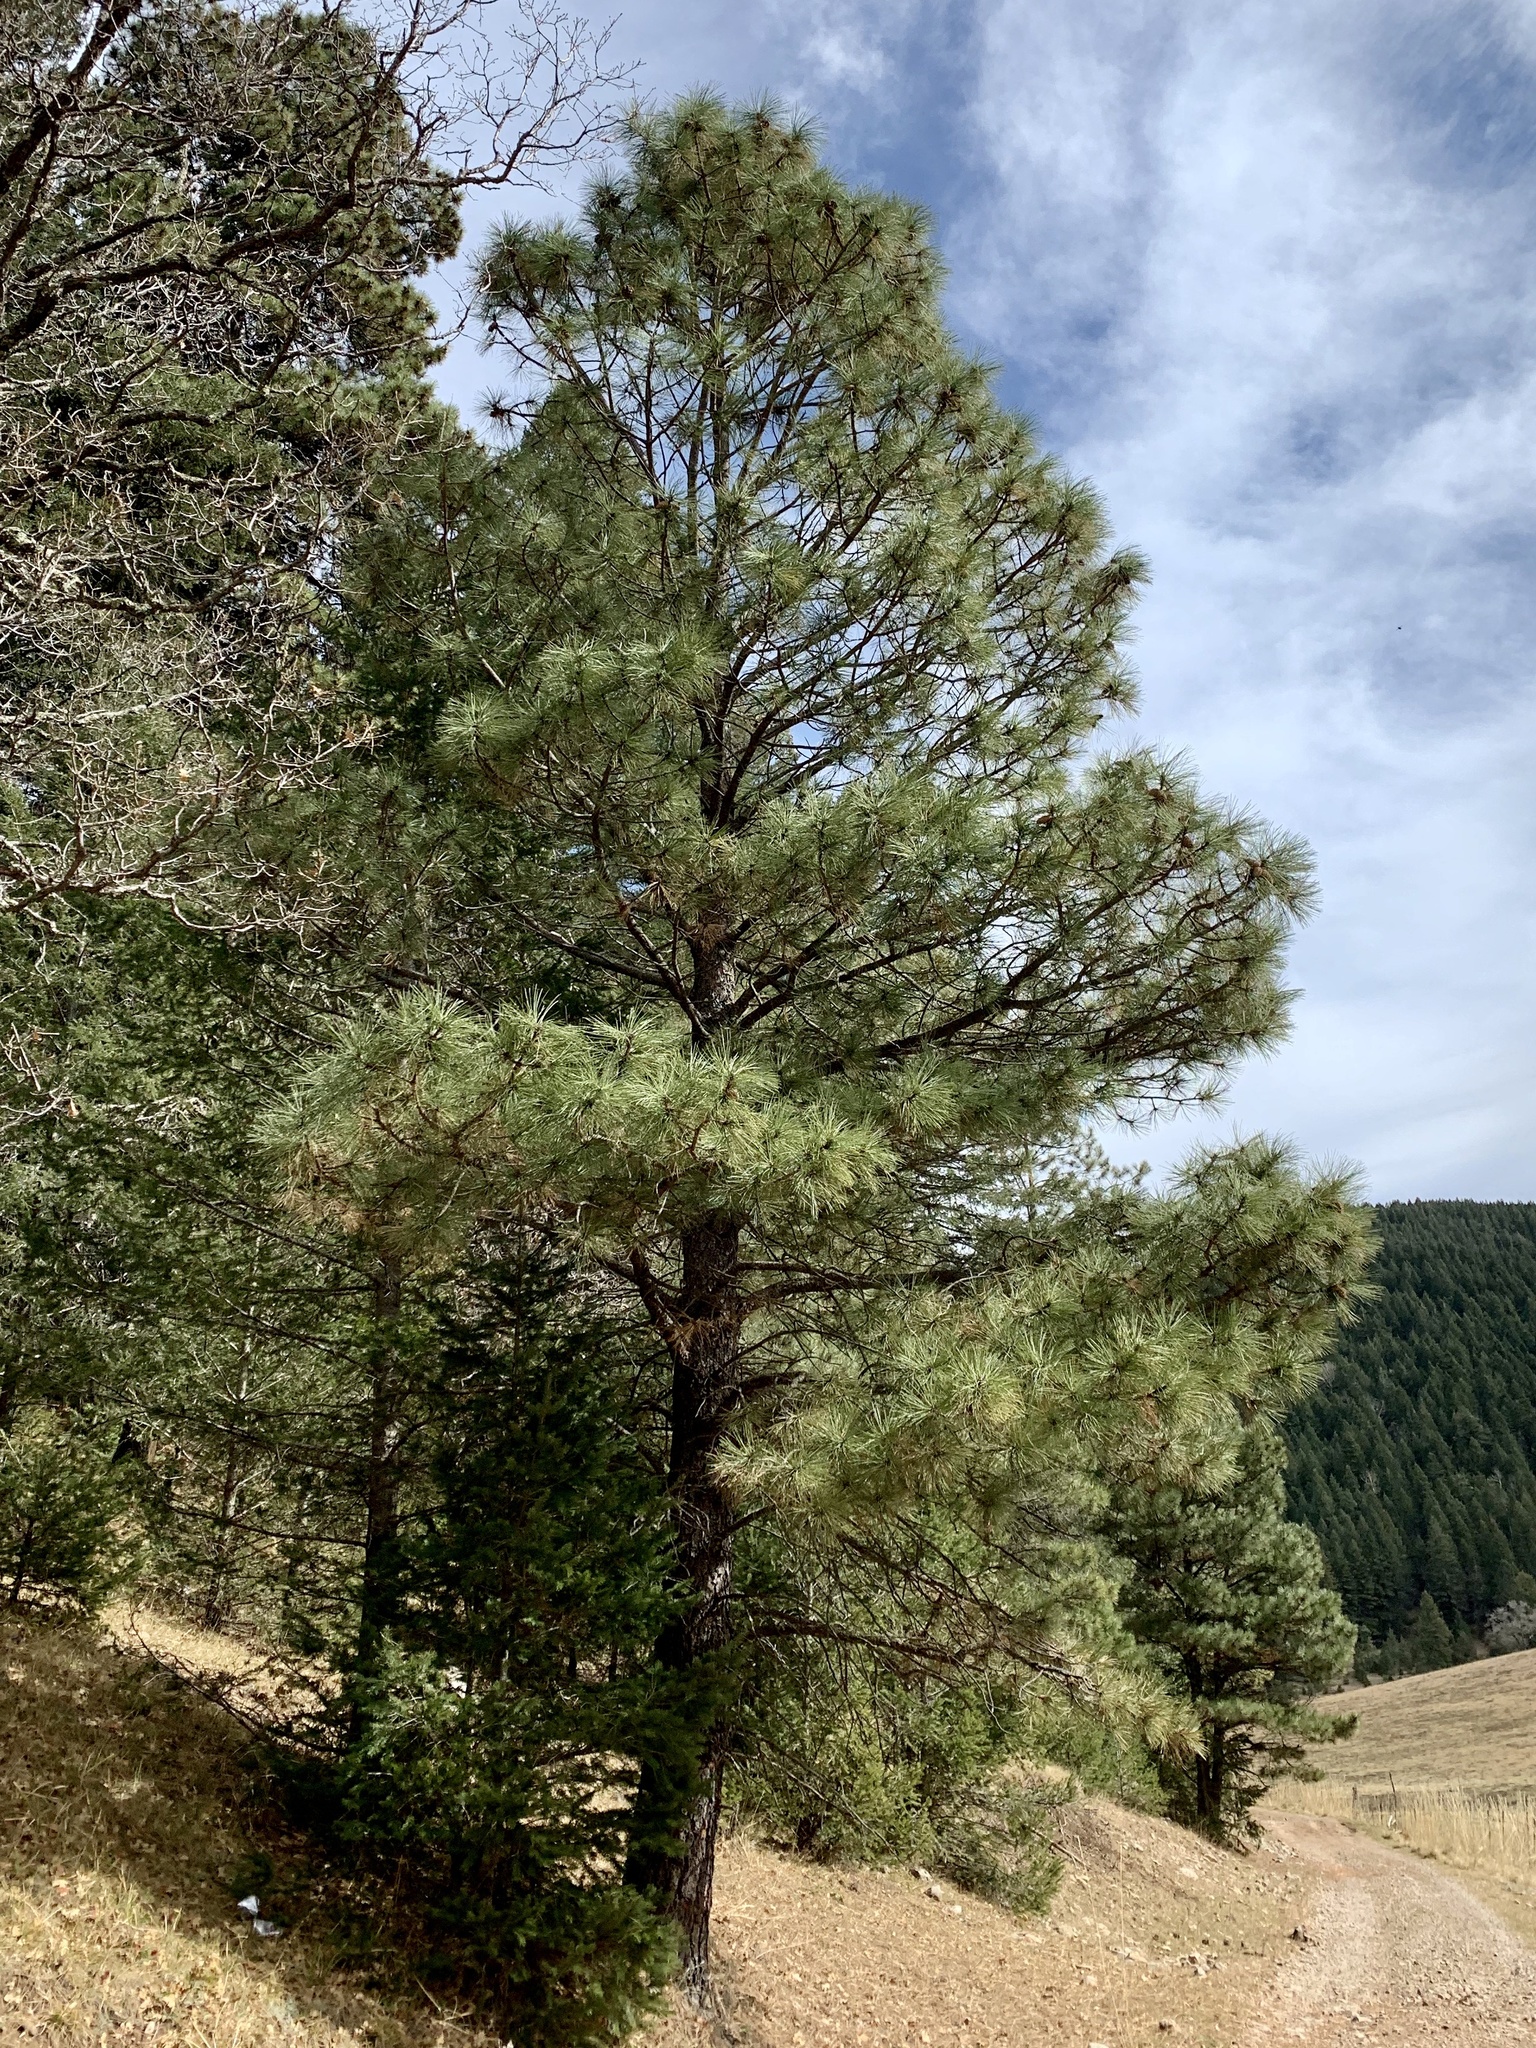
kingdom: Plantae
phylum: Tracheophyta
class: Pinopsida
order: Pinales
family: Pinaceae
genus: Pinus
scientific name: Pinus ponderosa
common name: Western yellow-pine
